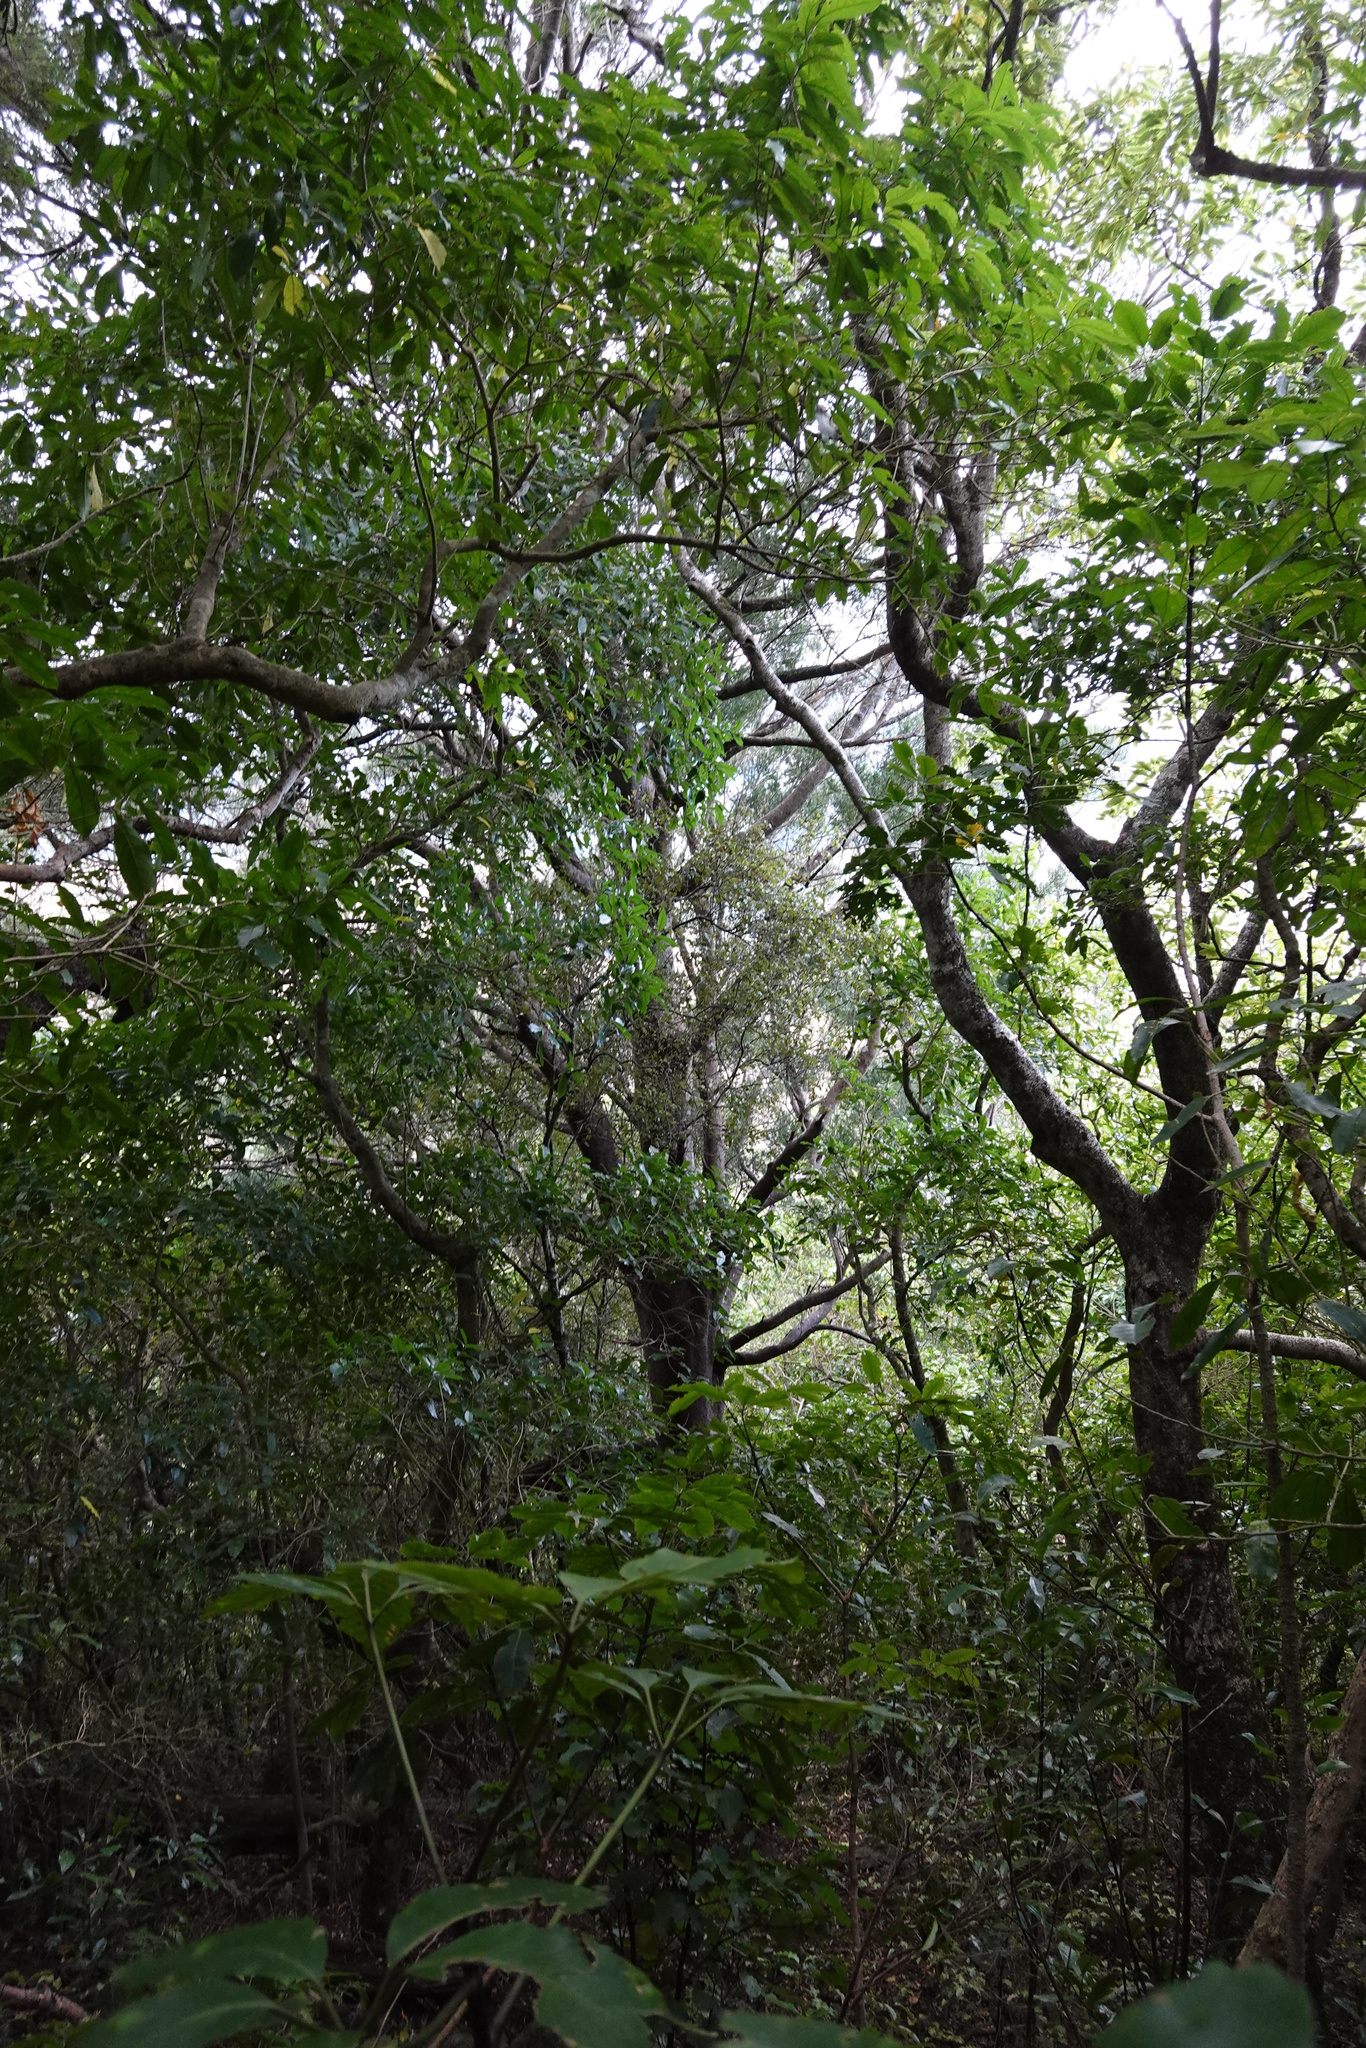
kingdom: Plantae
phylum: Tracheophyta
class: Pinopsida
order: Pinales
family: Podocarpaceae
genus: Prumnopitys
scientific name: Prumnopitys taxifolia
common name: Matai
